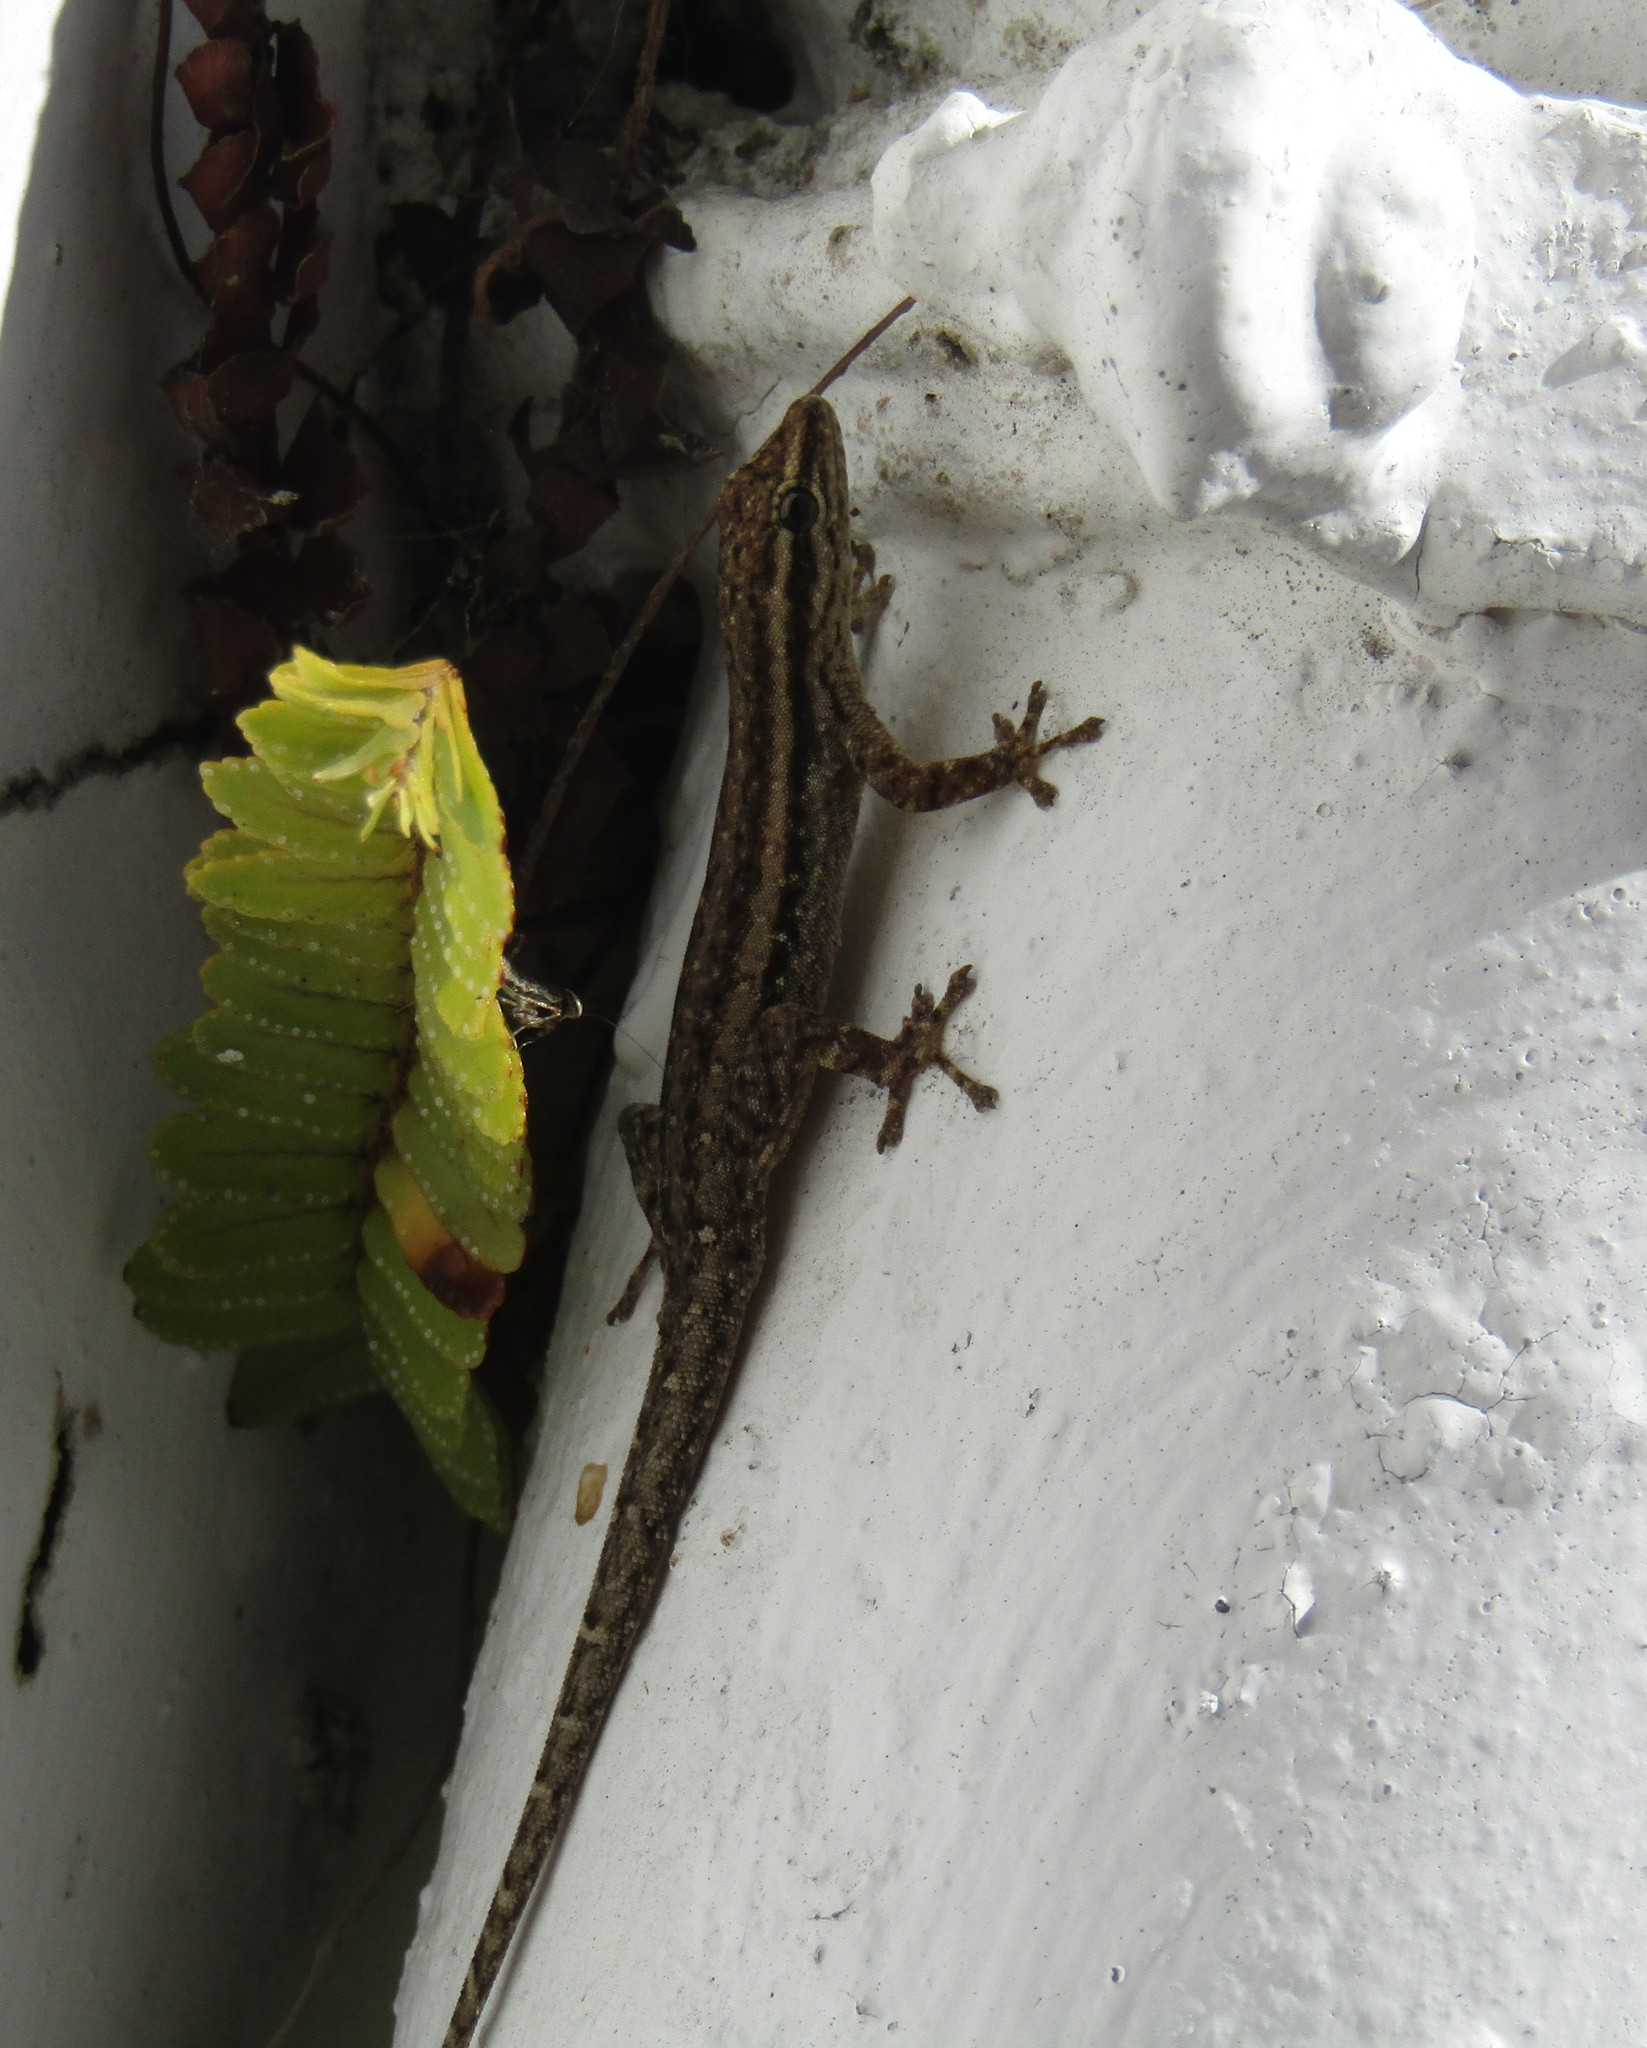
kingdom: Animalia
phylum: Chordata
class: Squamata
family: Gekkonidae
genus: Lygodactylus
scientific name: Lygodactylus capensis
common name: Cape dwarf gecko
